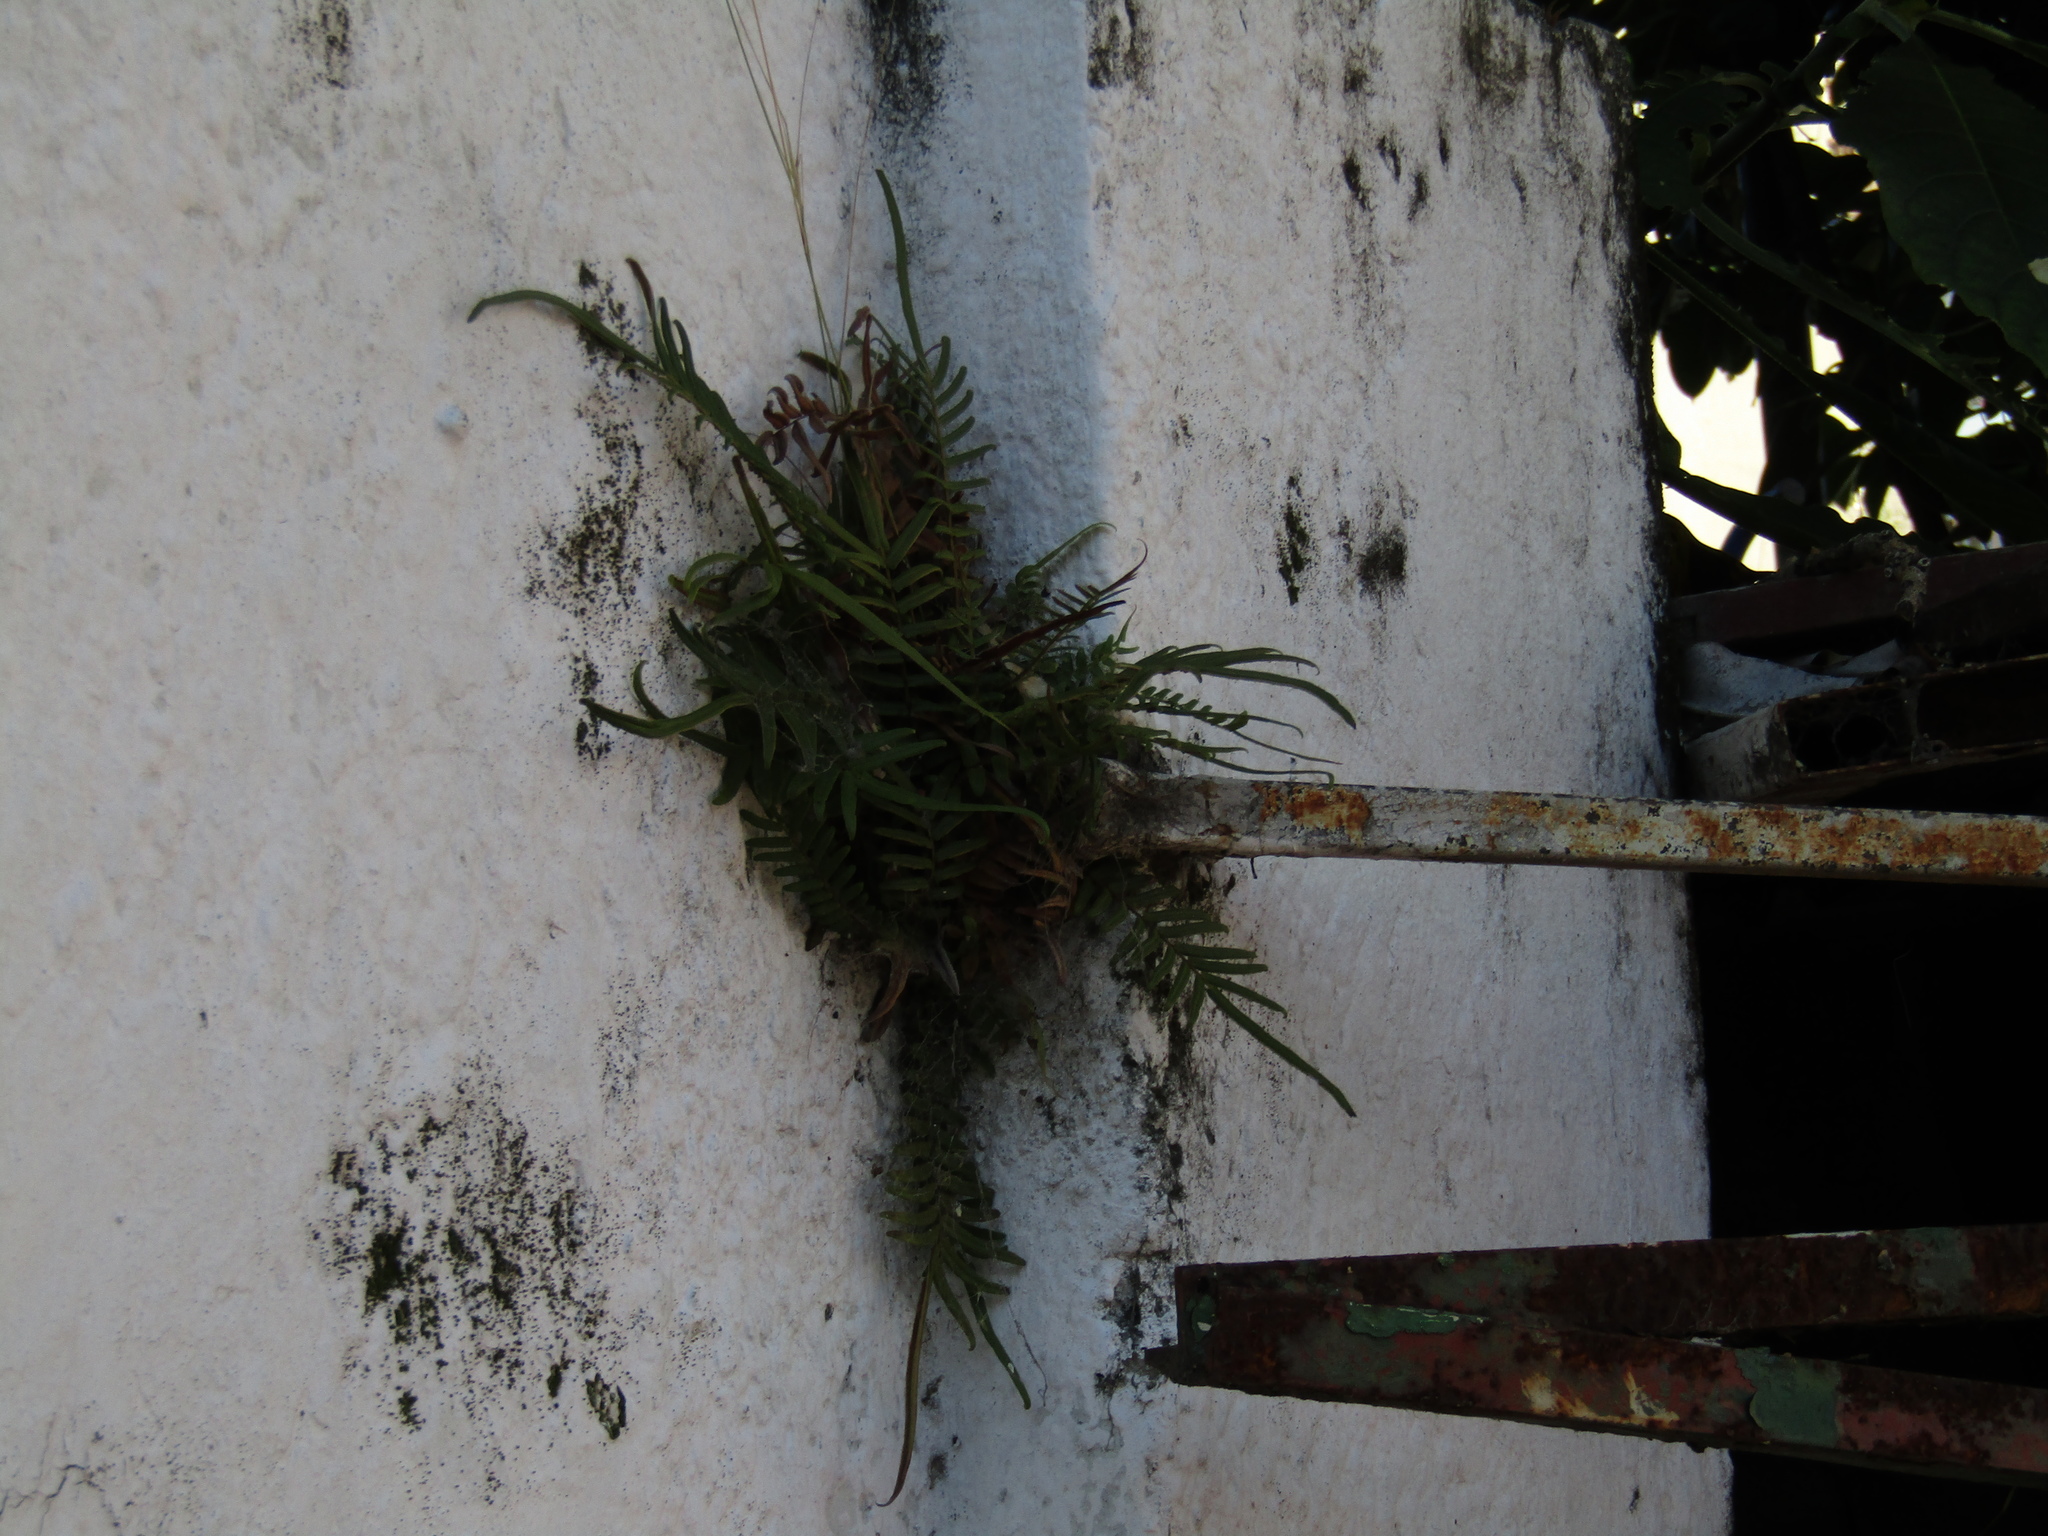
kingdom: Plantae
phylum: Tracheophyta
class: Polypodiopsida
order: Polypodiales
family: Pteridaceae
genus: Pteris
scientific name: Pteris vittata
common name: Ladder brake
